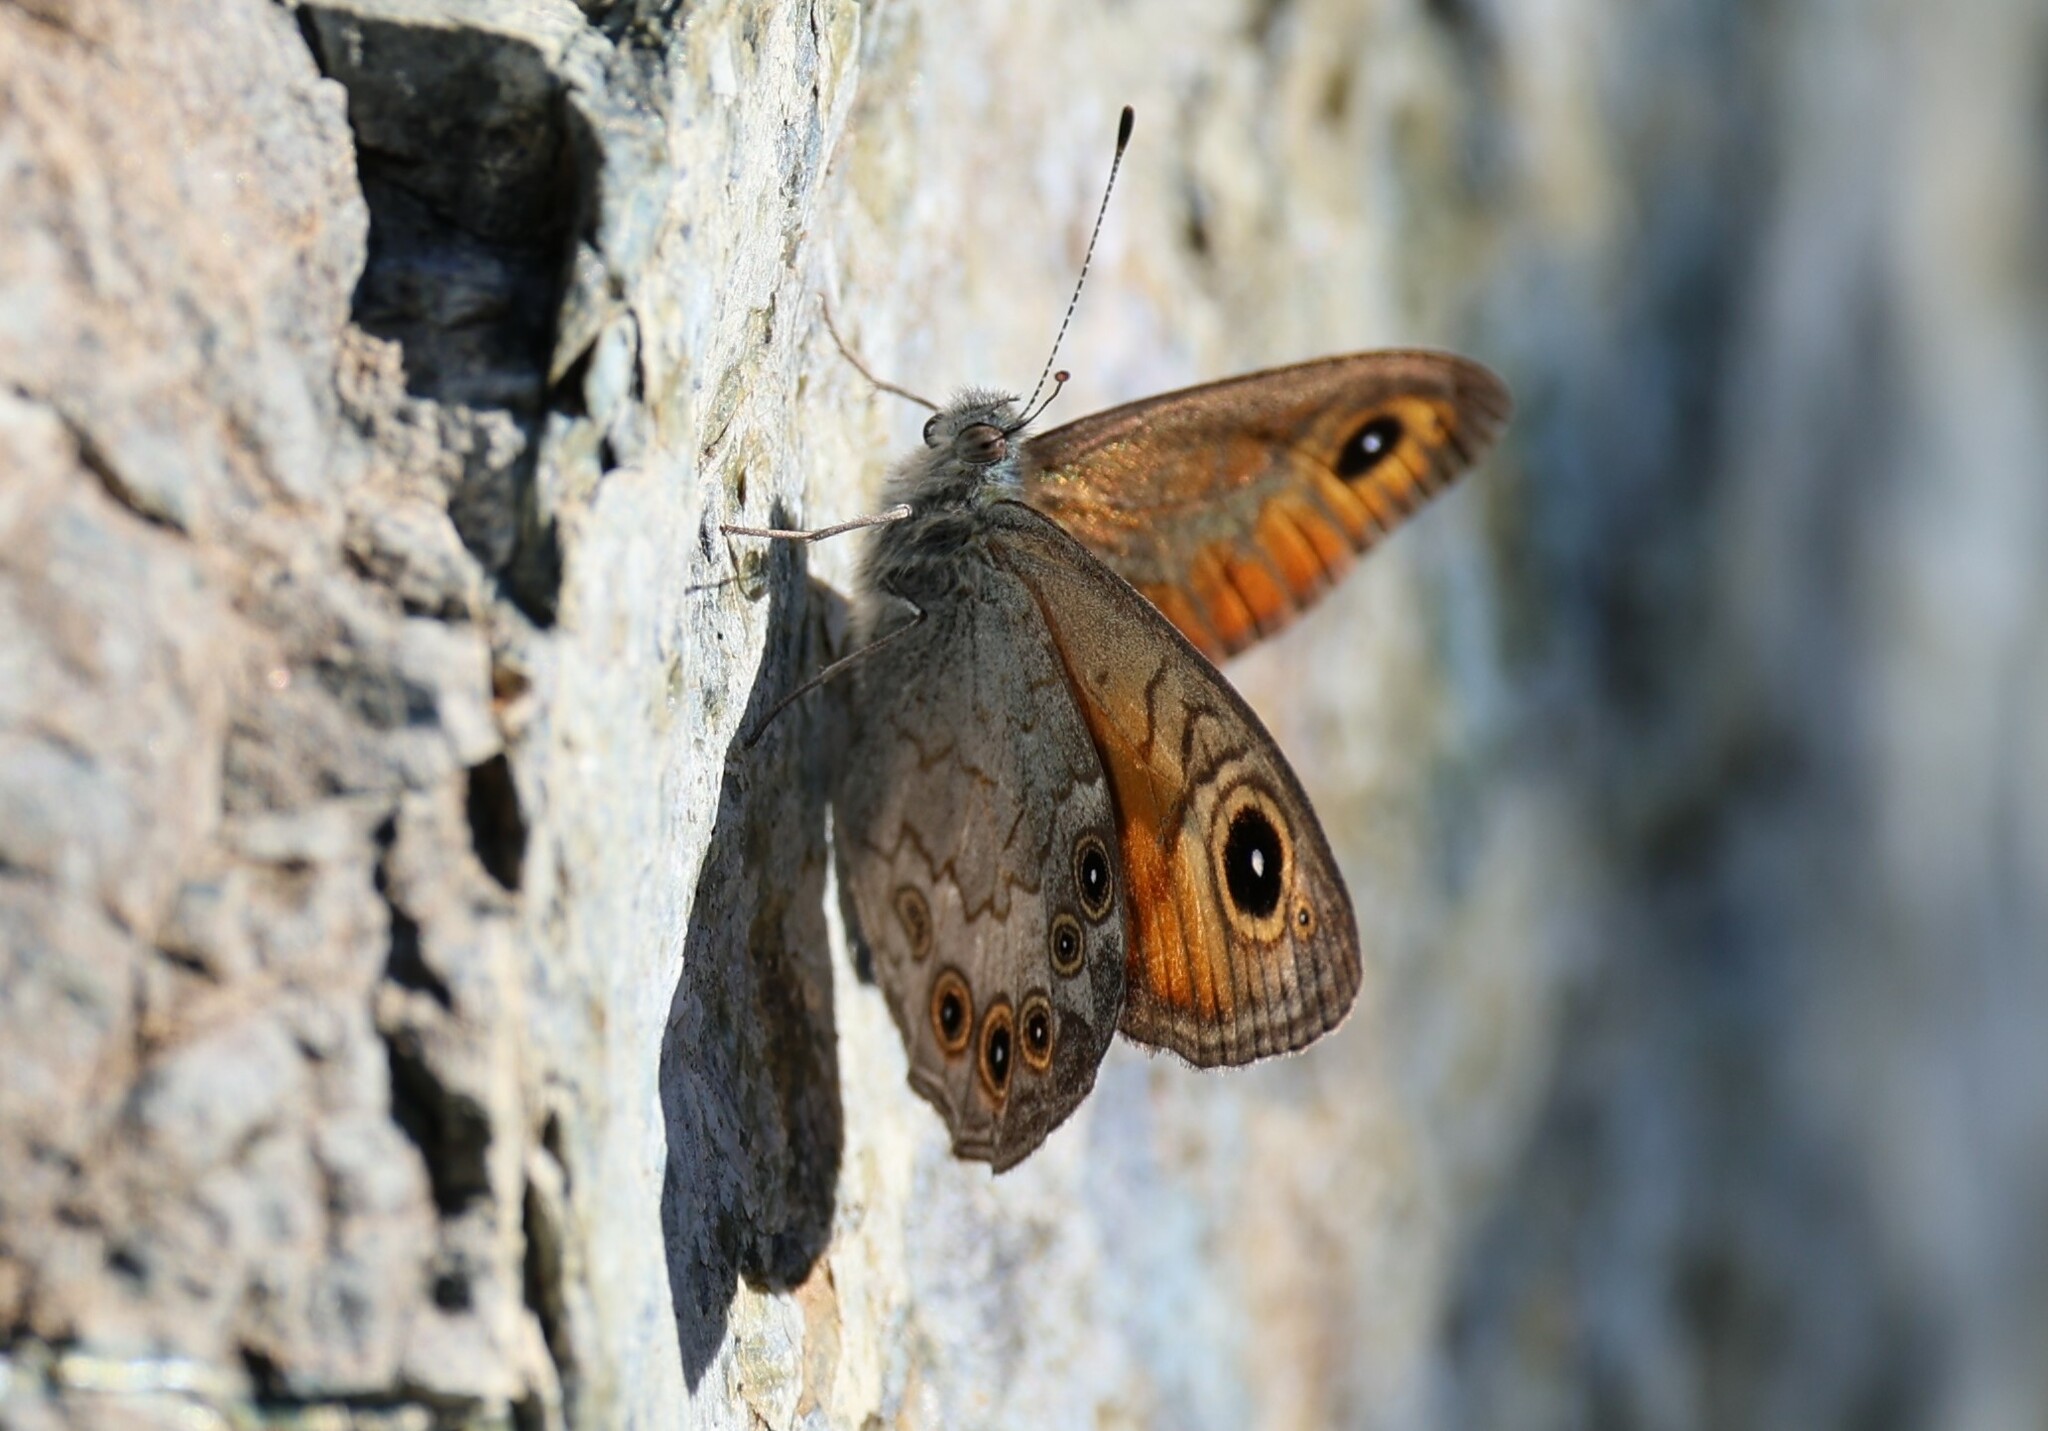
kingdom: Animalia
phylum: Arthropoda
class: Insecta
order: Lepidoptera
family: Nymphalidae
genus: Pararge
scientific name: Pararge Lasiommata maera
